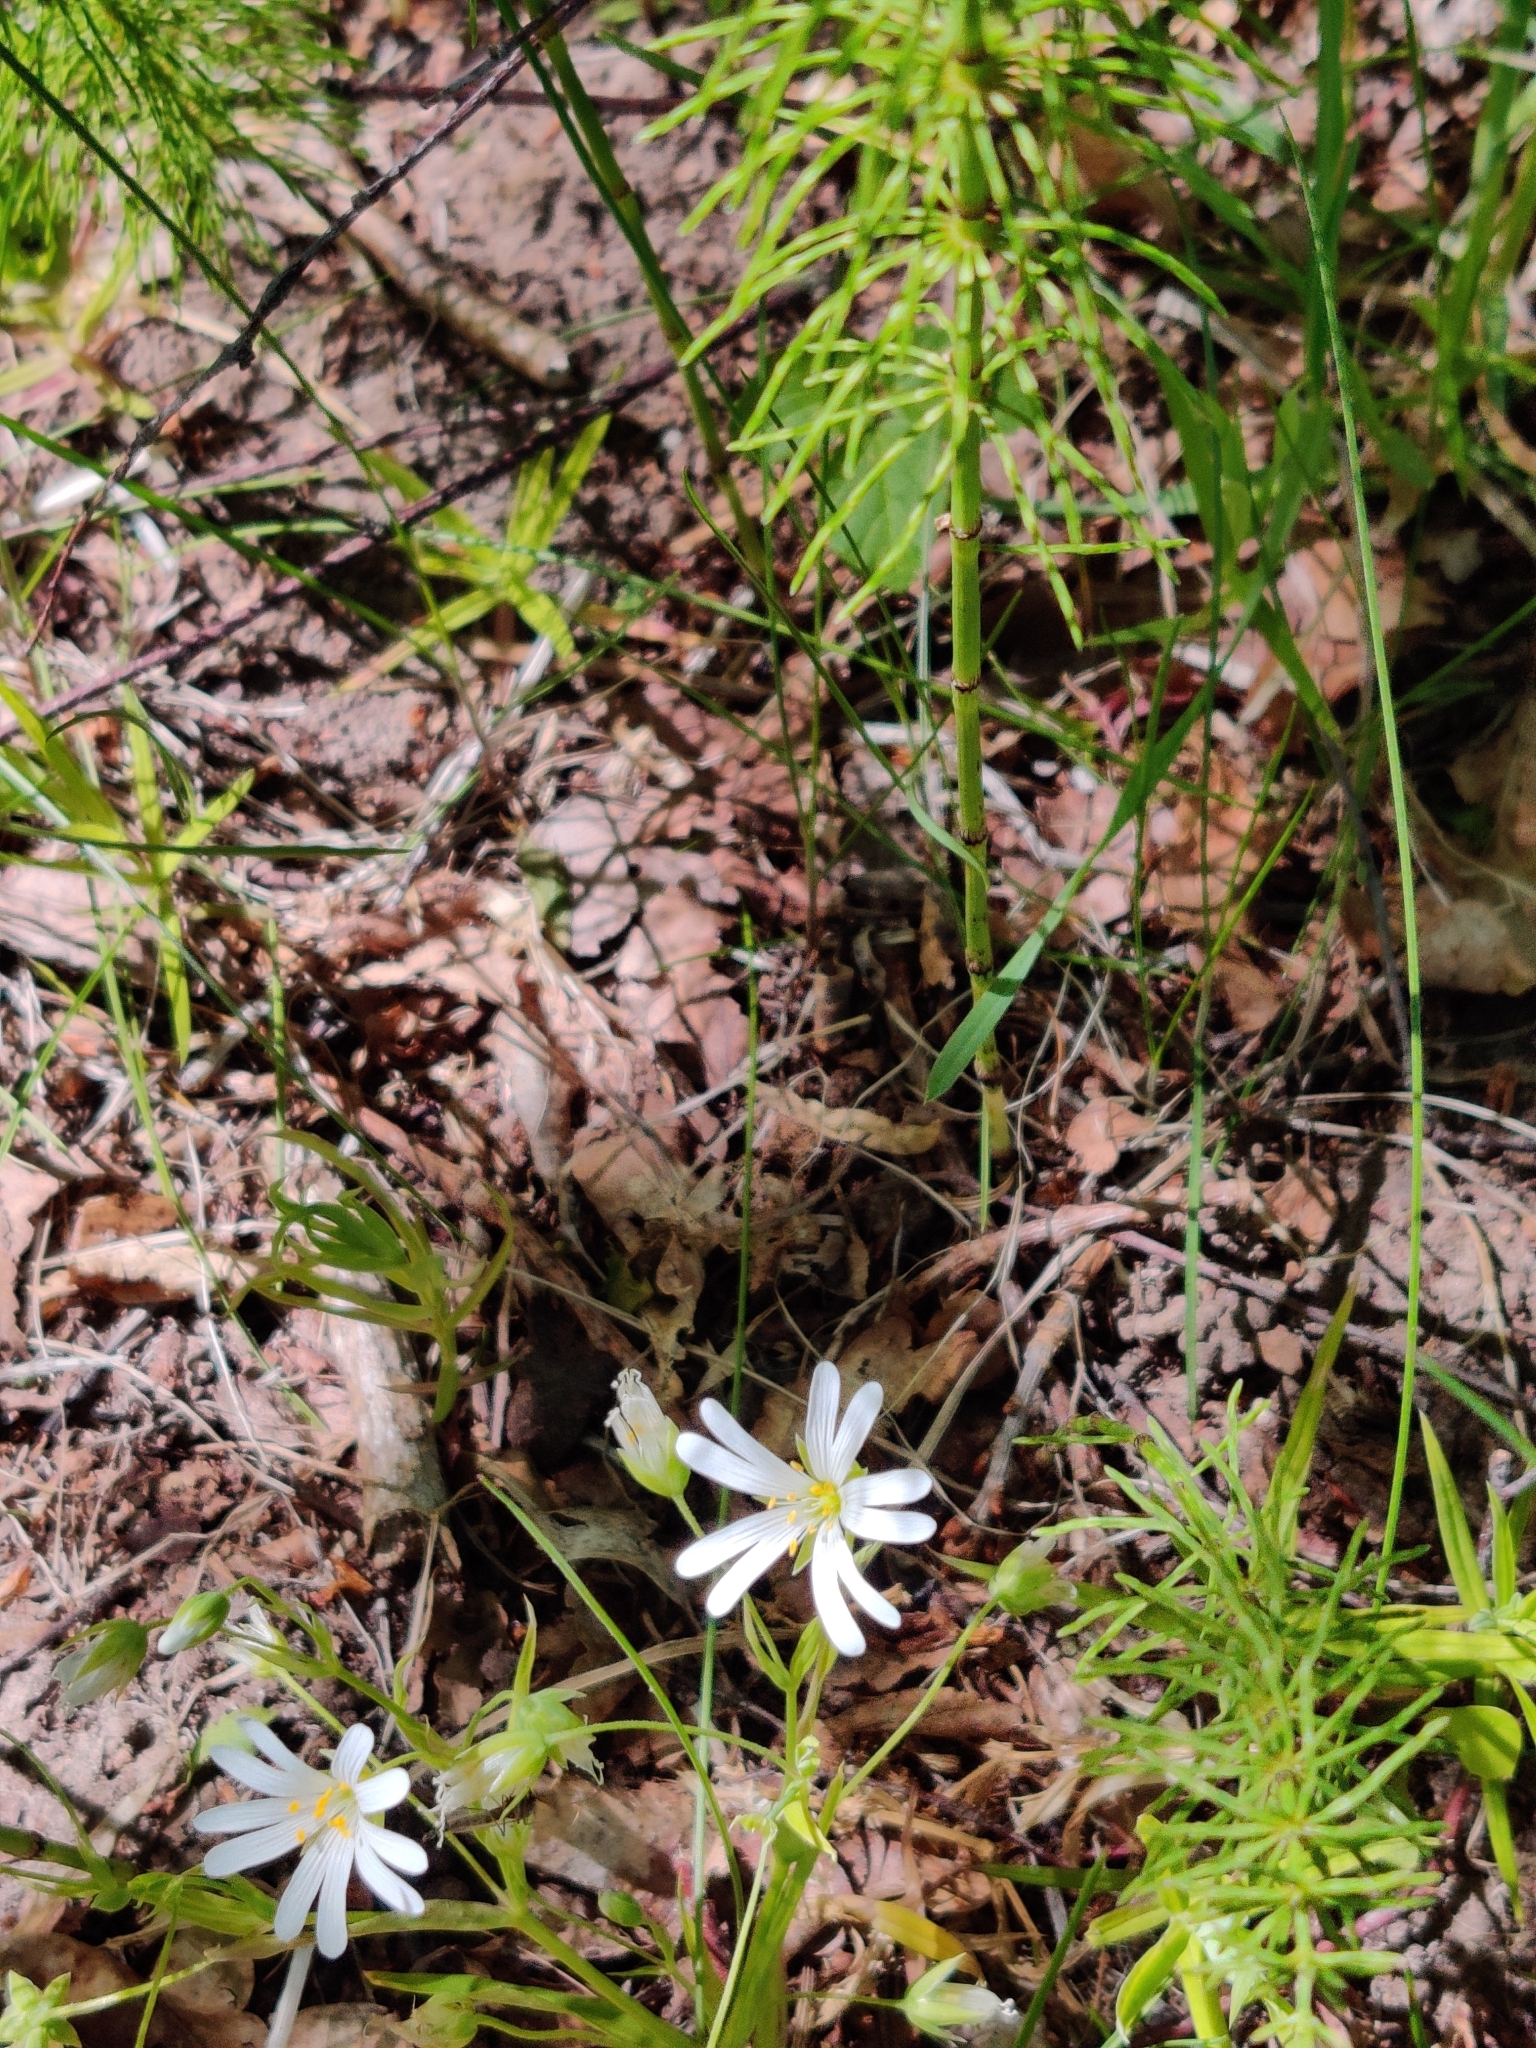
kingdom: Plantae
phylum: Tracheophyta
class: Magnoliopsida
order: Caryophyllales
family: Caryophyllaceae
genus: Rabelera
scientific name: Rabelera holostea
